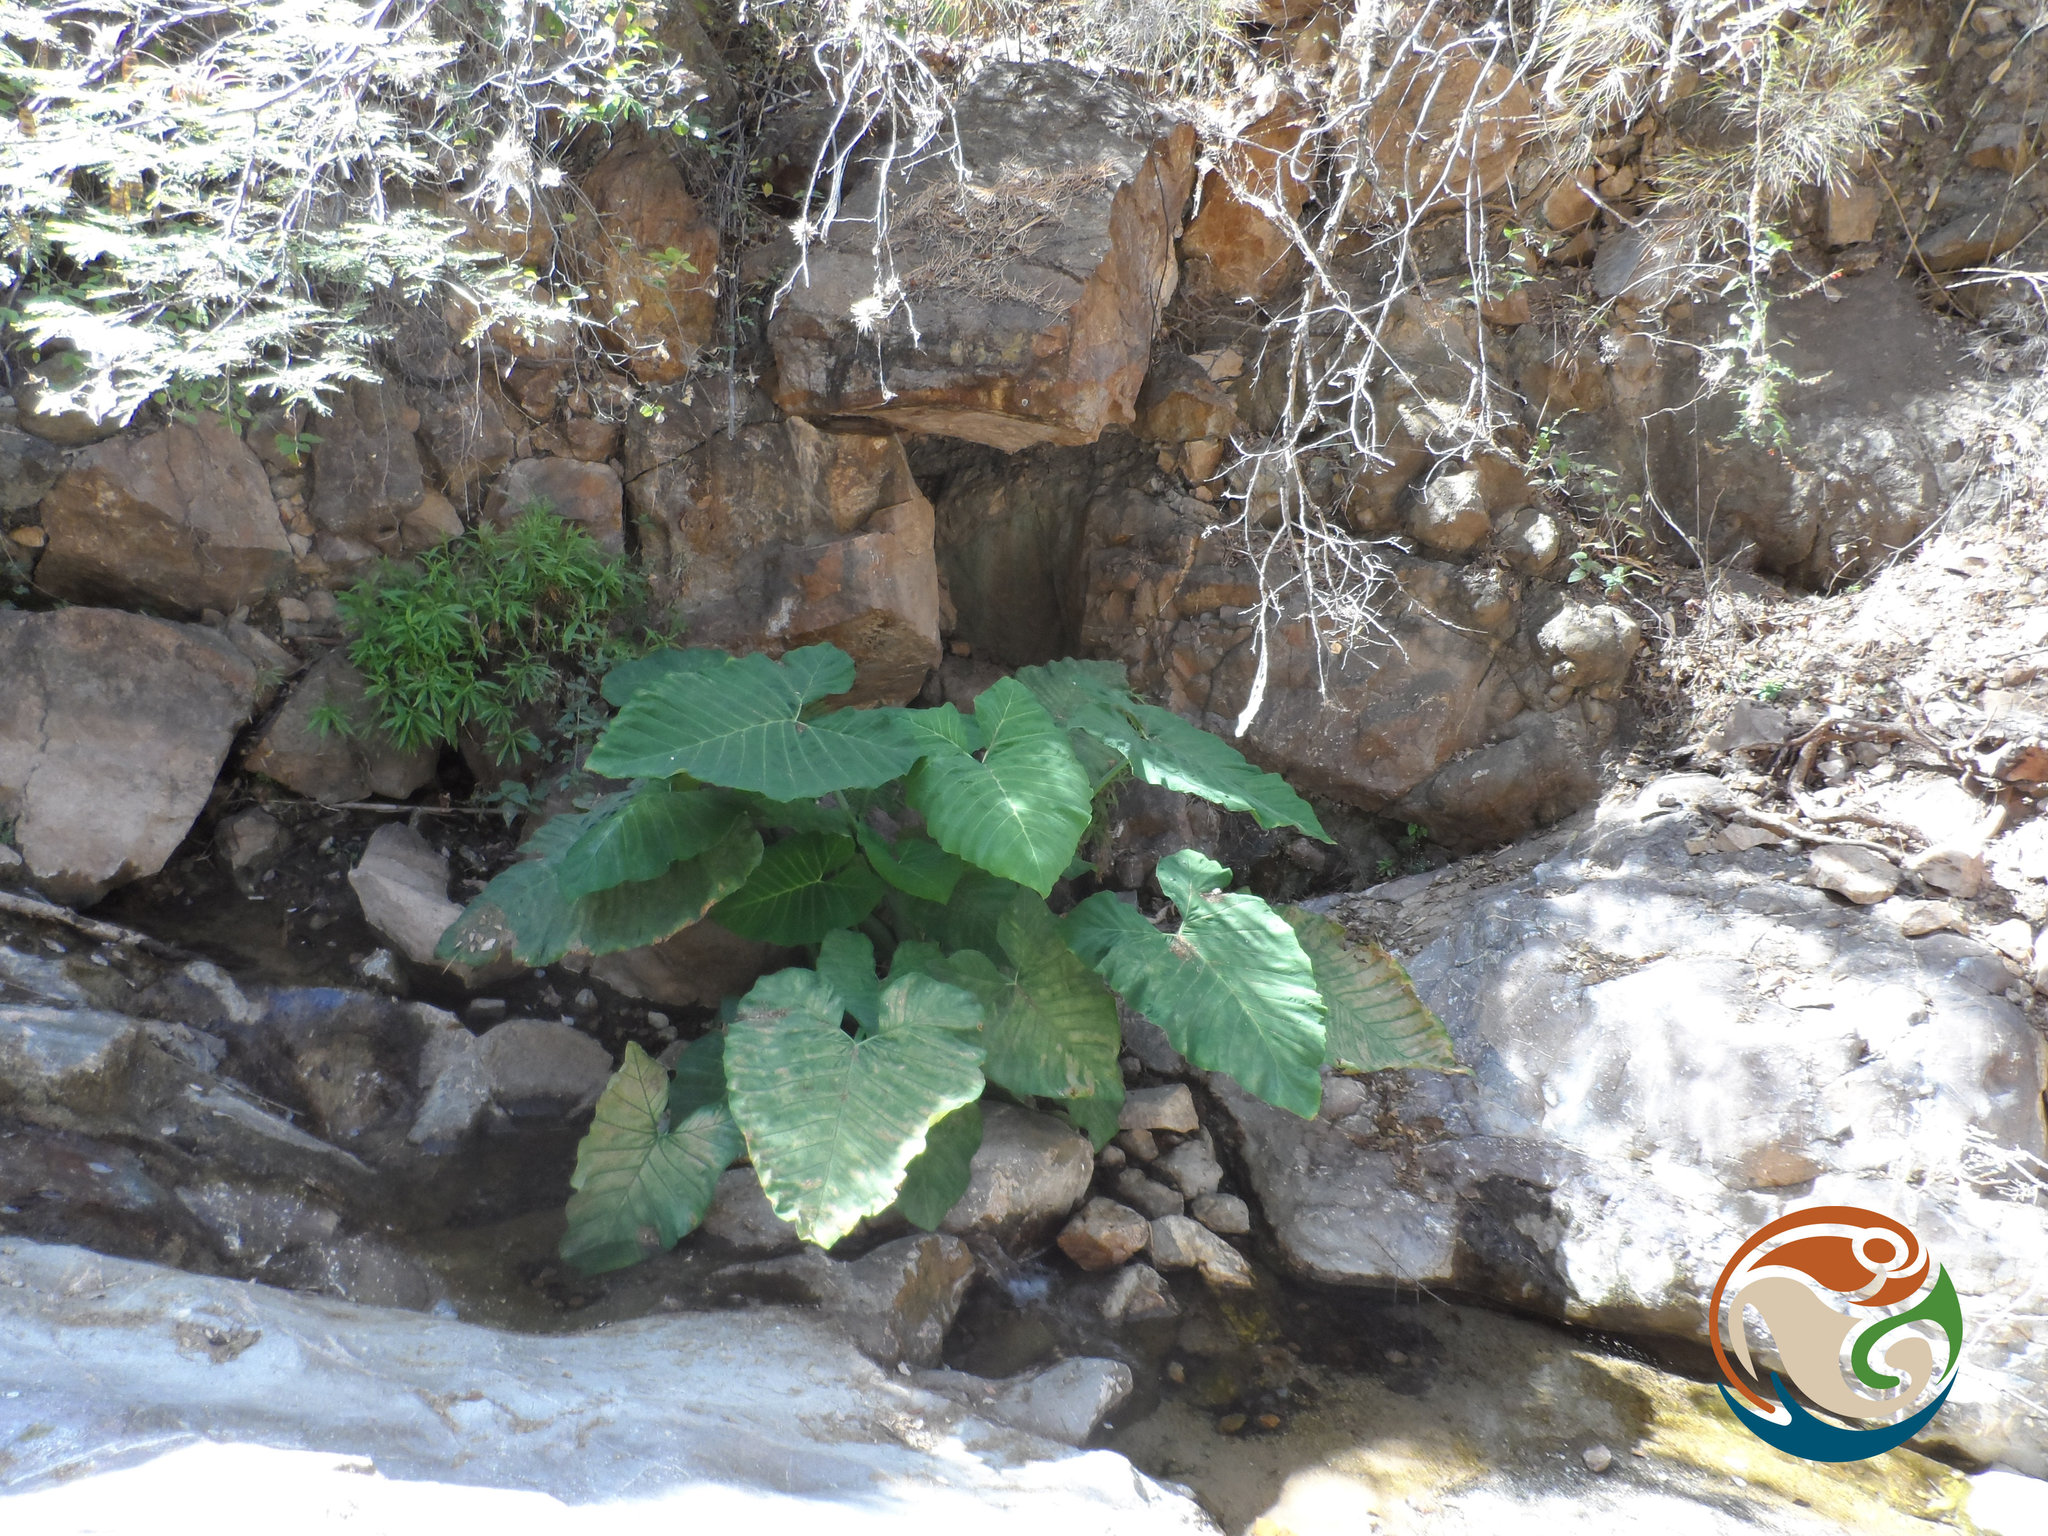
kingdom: Plantae
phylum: Tracheophyta
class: Liliopsida
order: Alismatales
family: Araceae
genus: Xanthosoma
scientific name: Xanthosoma robustum
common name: Capote
